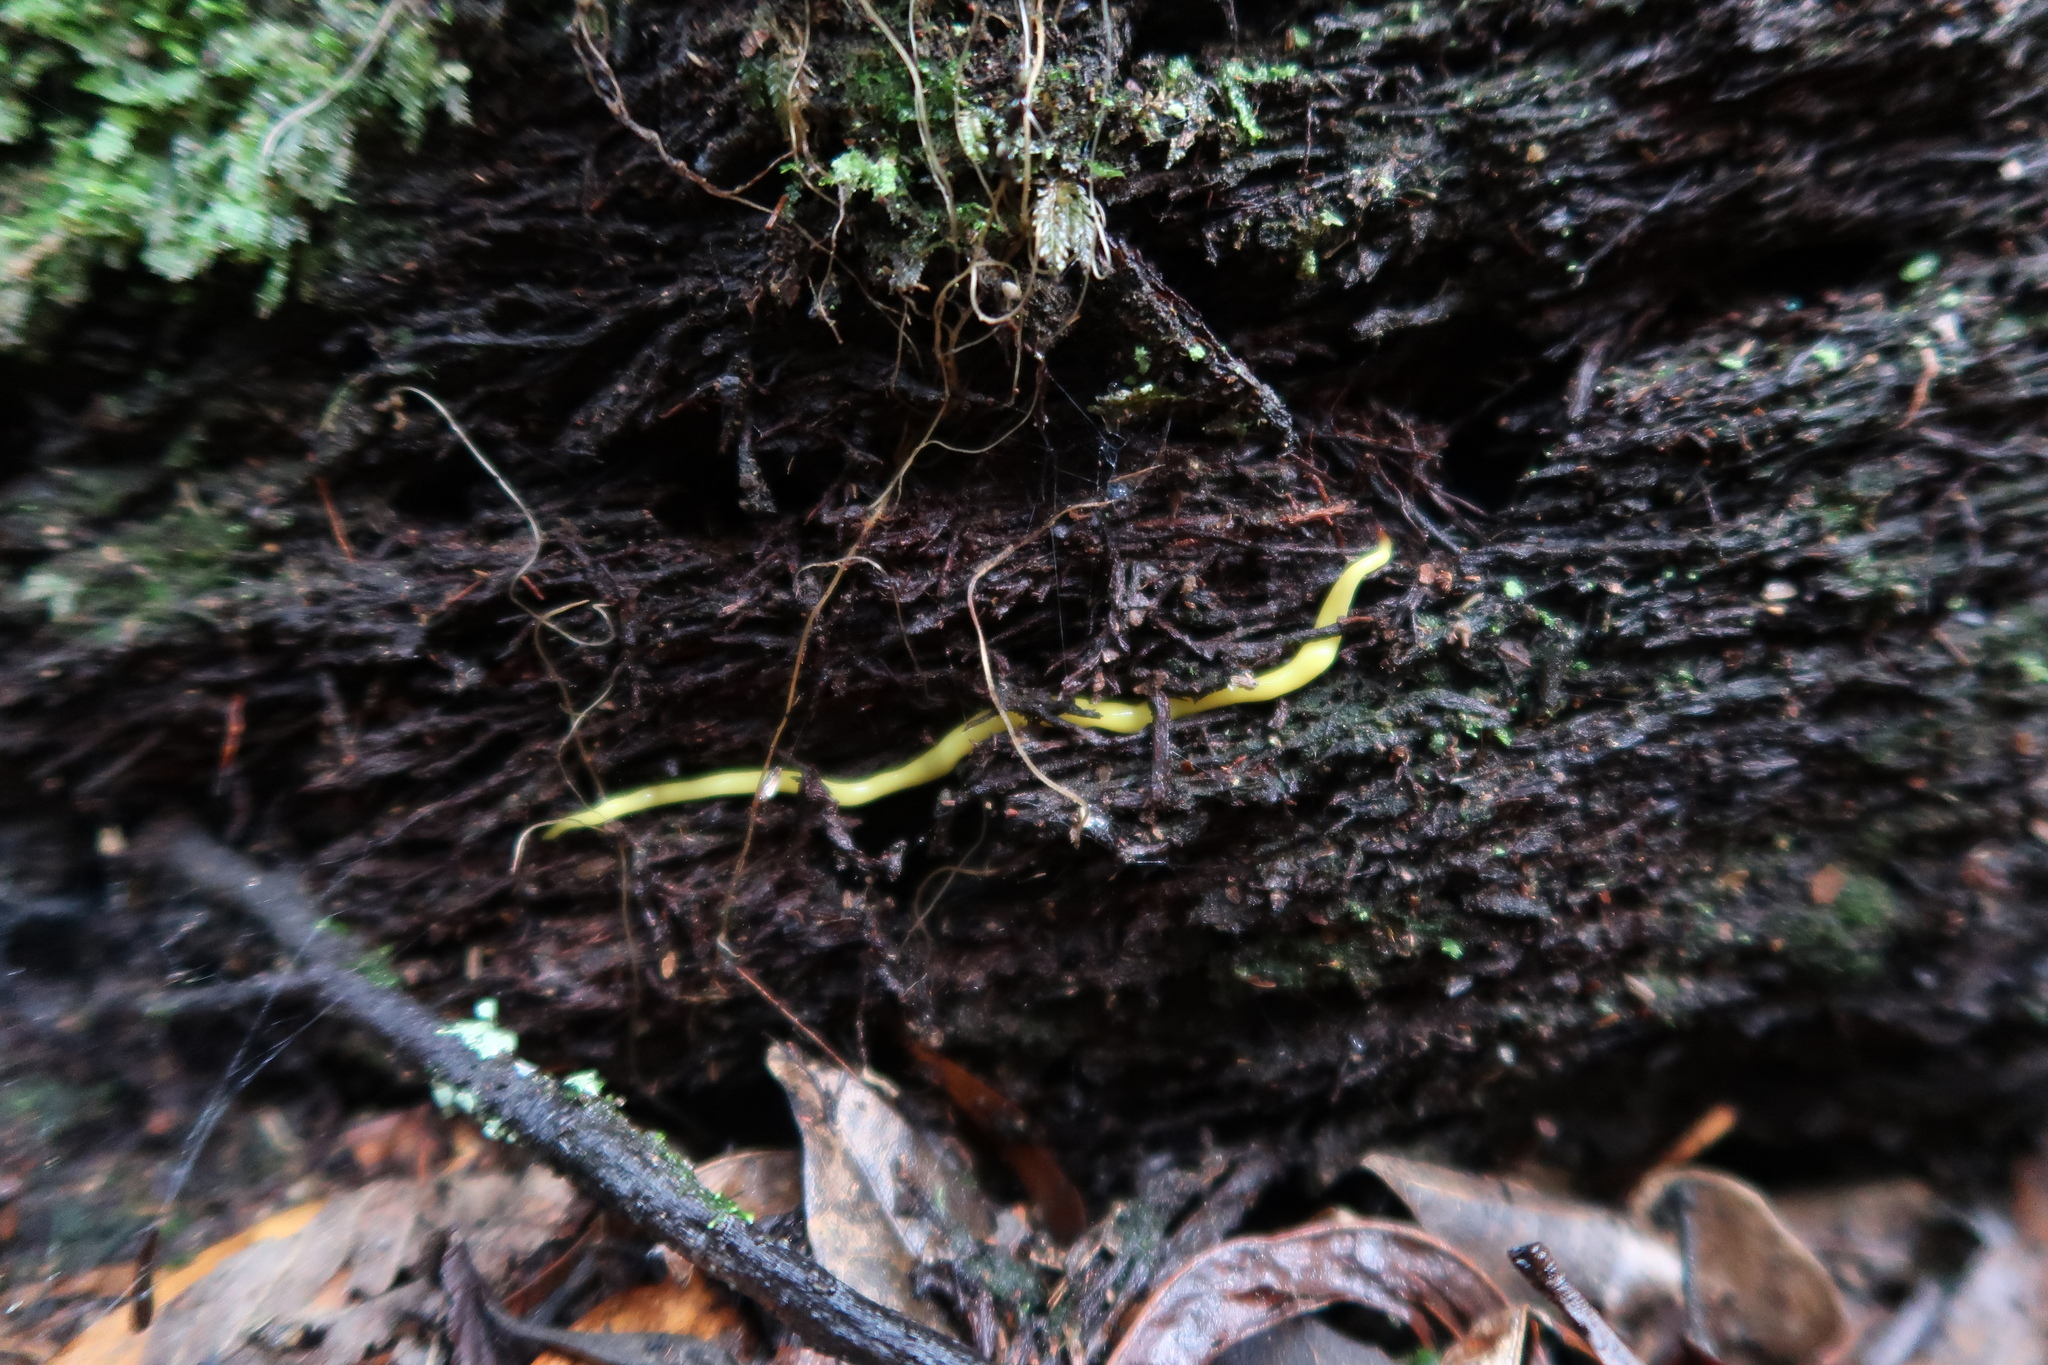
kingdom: Animalia
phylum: Platyhelminthes
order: Tricladida
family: Geoplanidae
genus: Fletchamia
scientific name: Fletchamia sugdeni
